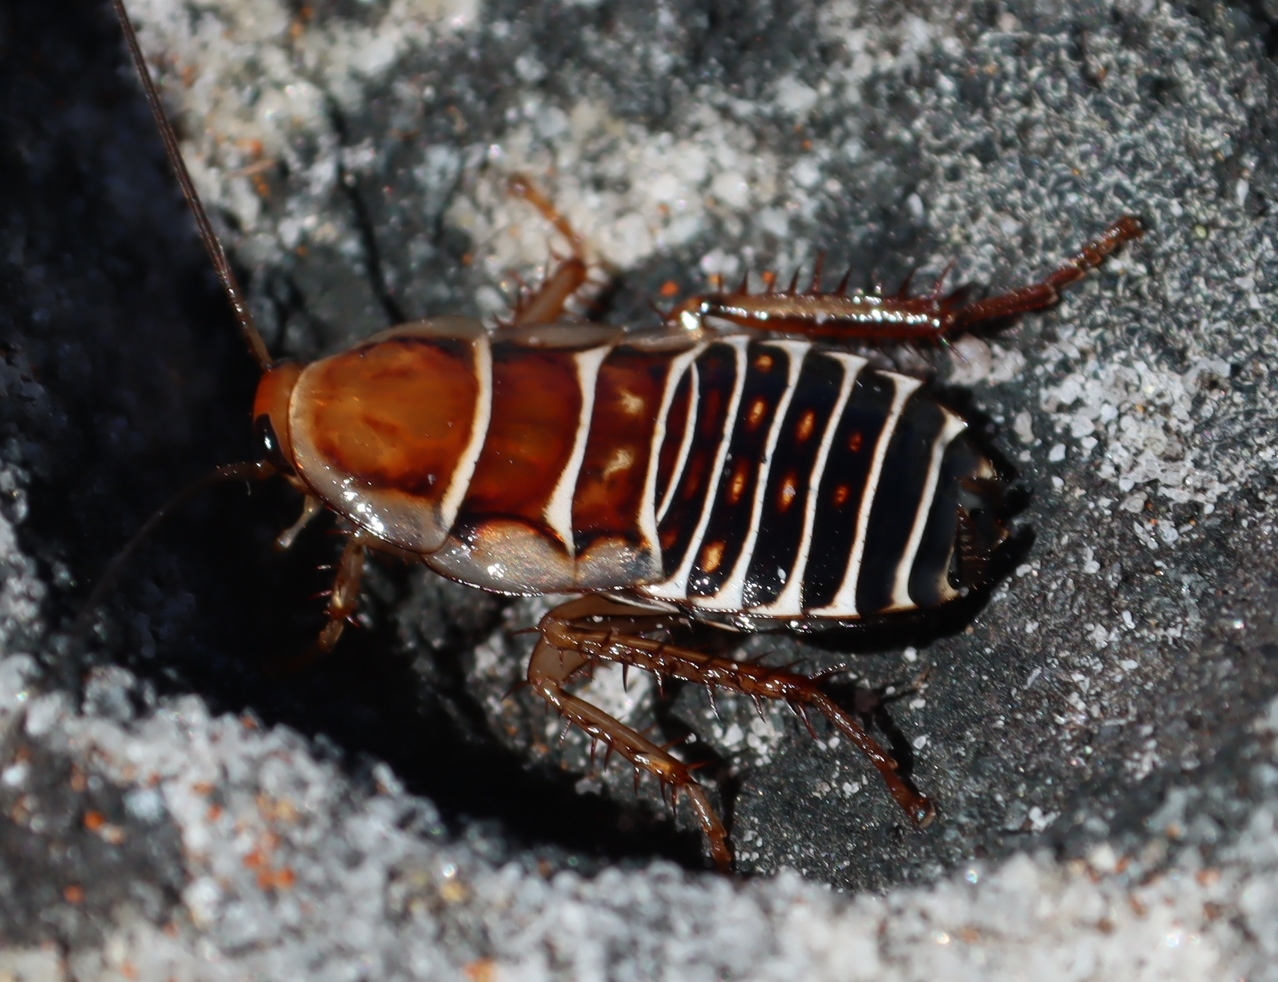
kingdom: Animalia
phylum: Arthropoda
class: Insecta
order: Blattodea
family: Ectobiidae
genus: Temnopteryx
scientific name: Temnopteryx phalerata
